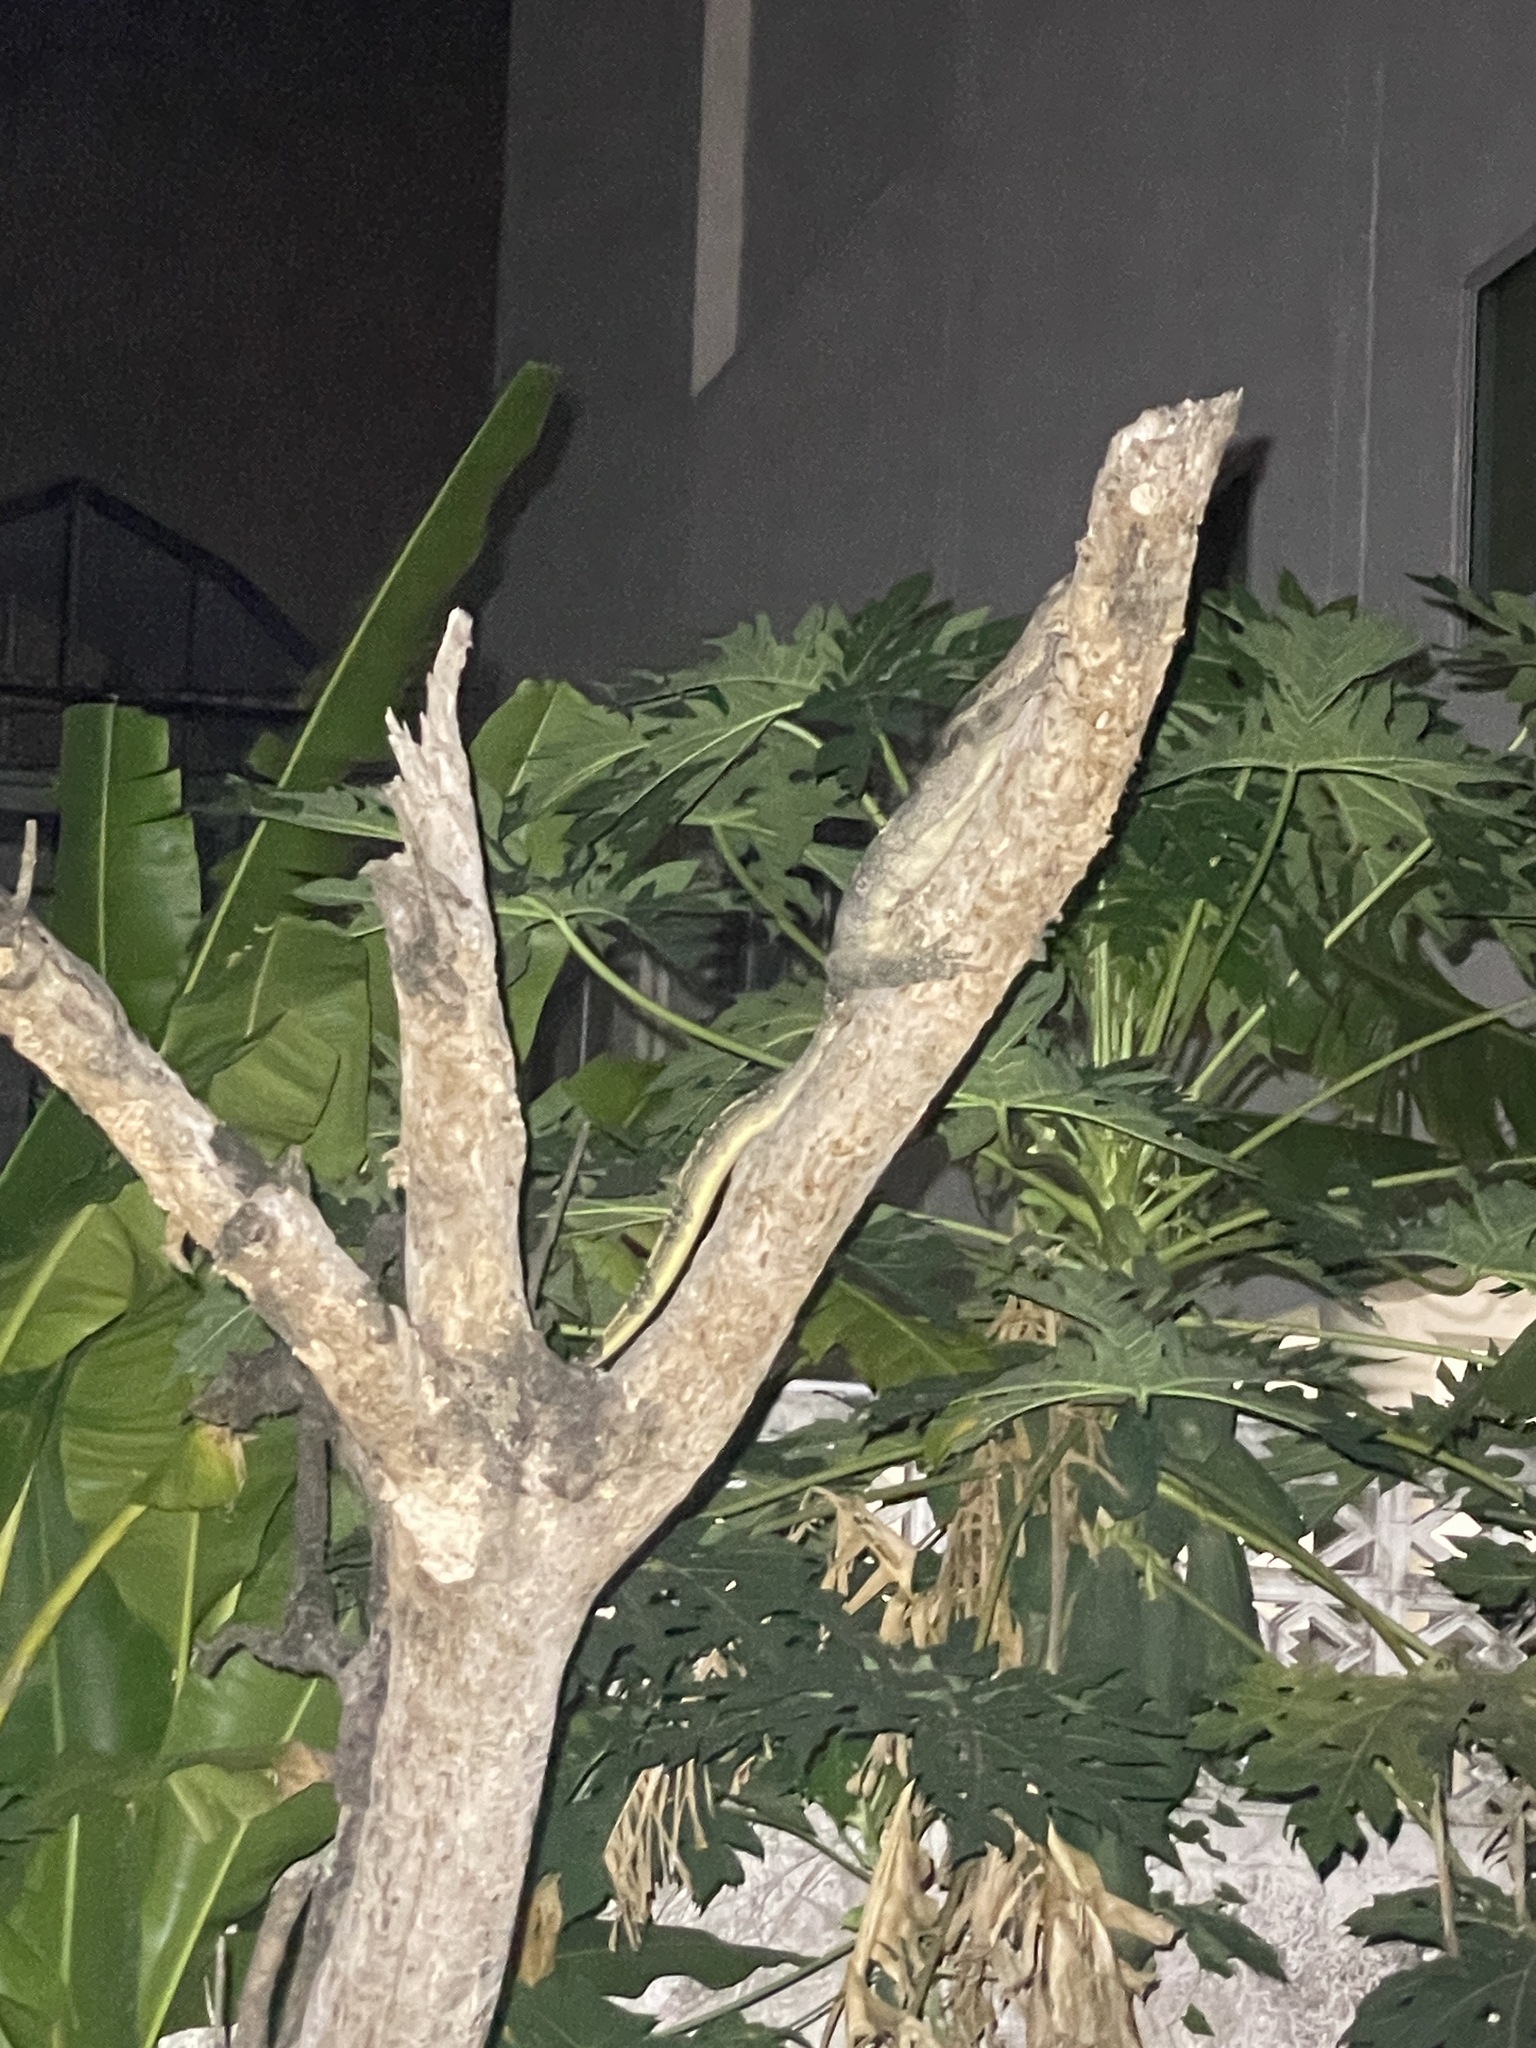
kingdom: Animalia
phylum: Chordata
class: Squamata
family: Varanidae
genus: Varanus
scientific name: Varanus salvator
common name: Common water monitor
